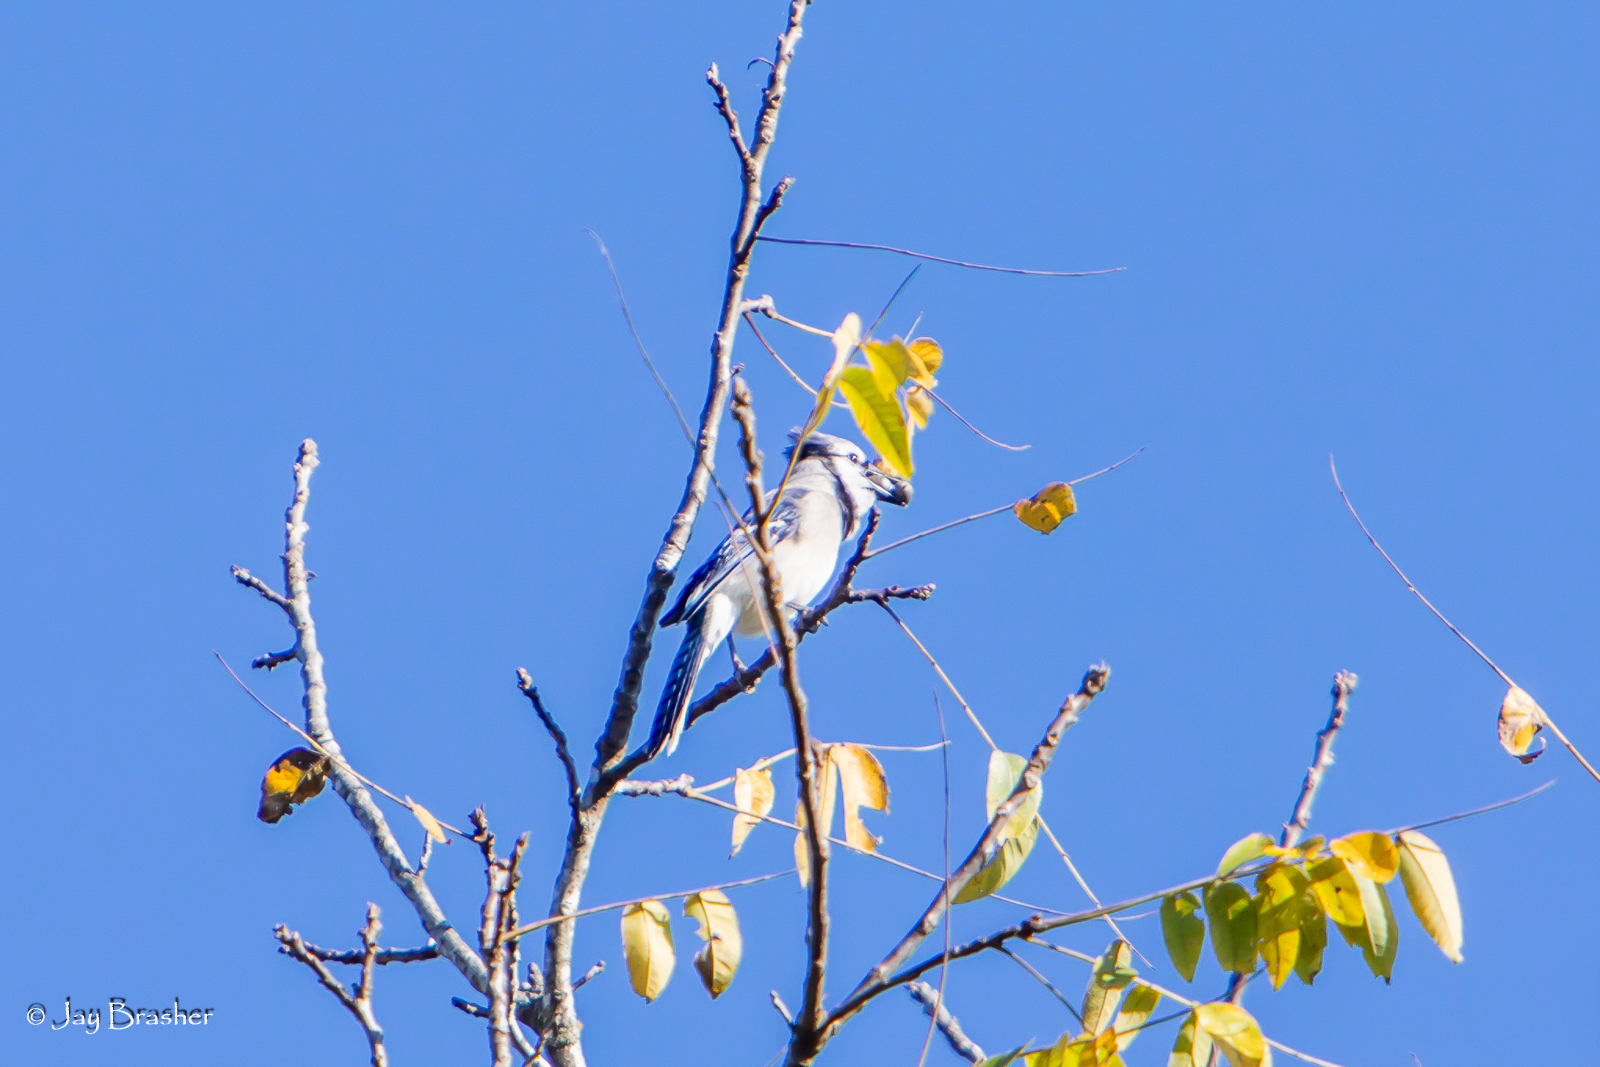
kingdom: Animalia
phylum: Chordata
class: Aves
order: Passeriformes
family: Corvidae
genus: Cyanocitta
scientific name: Cyanocitta cristata
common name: Blue jay
